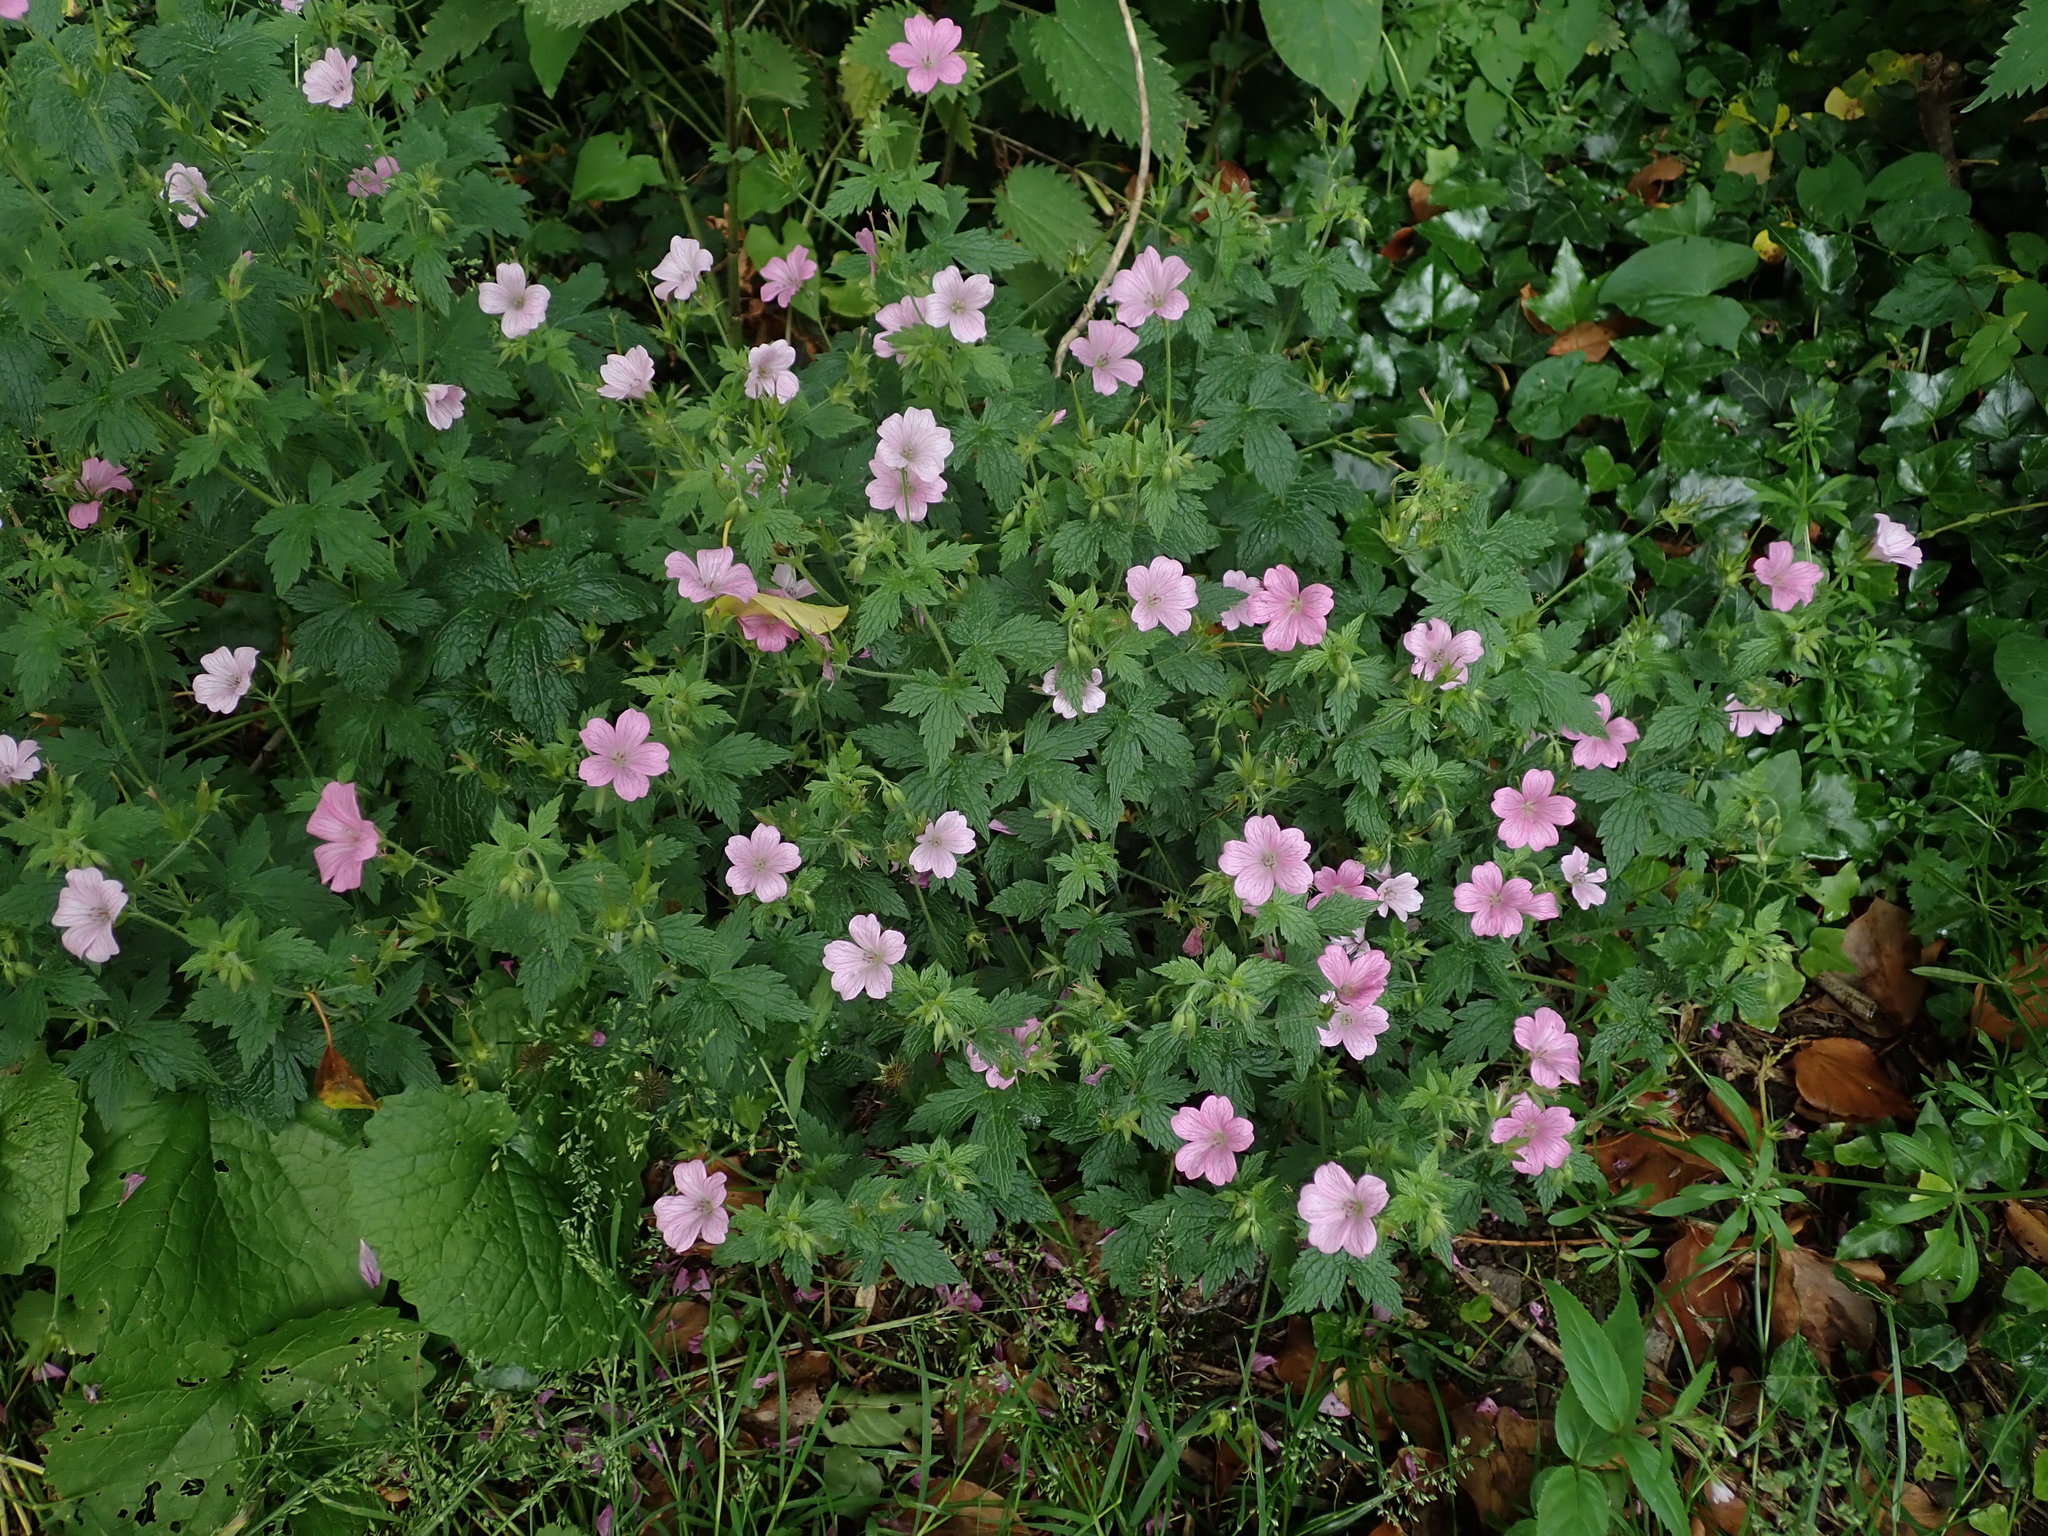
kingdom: Plantae
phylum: Tracheophyta
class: Magnoliopsida
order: Geraniales
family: Geraniaceae
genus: Geranium
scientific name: Geranium oxonianum
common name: Druce's crane's-bill
